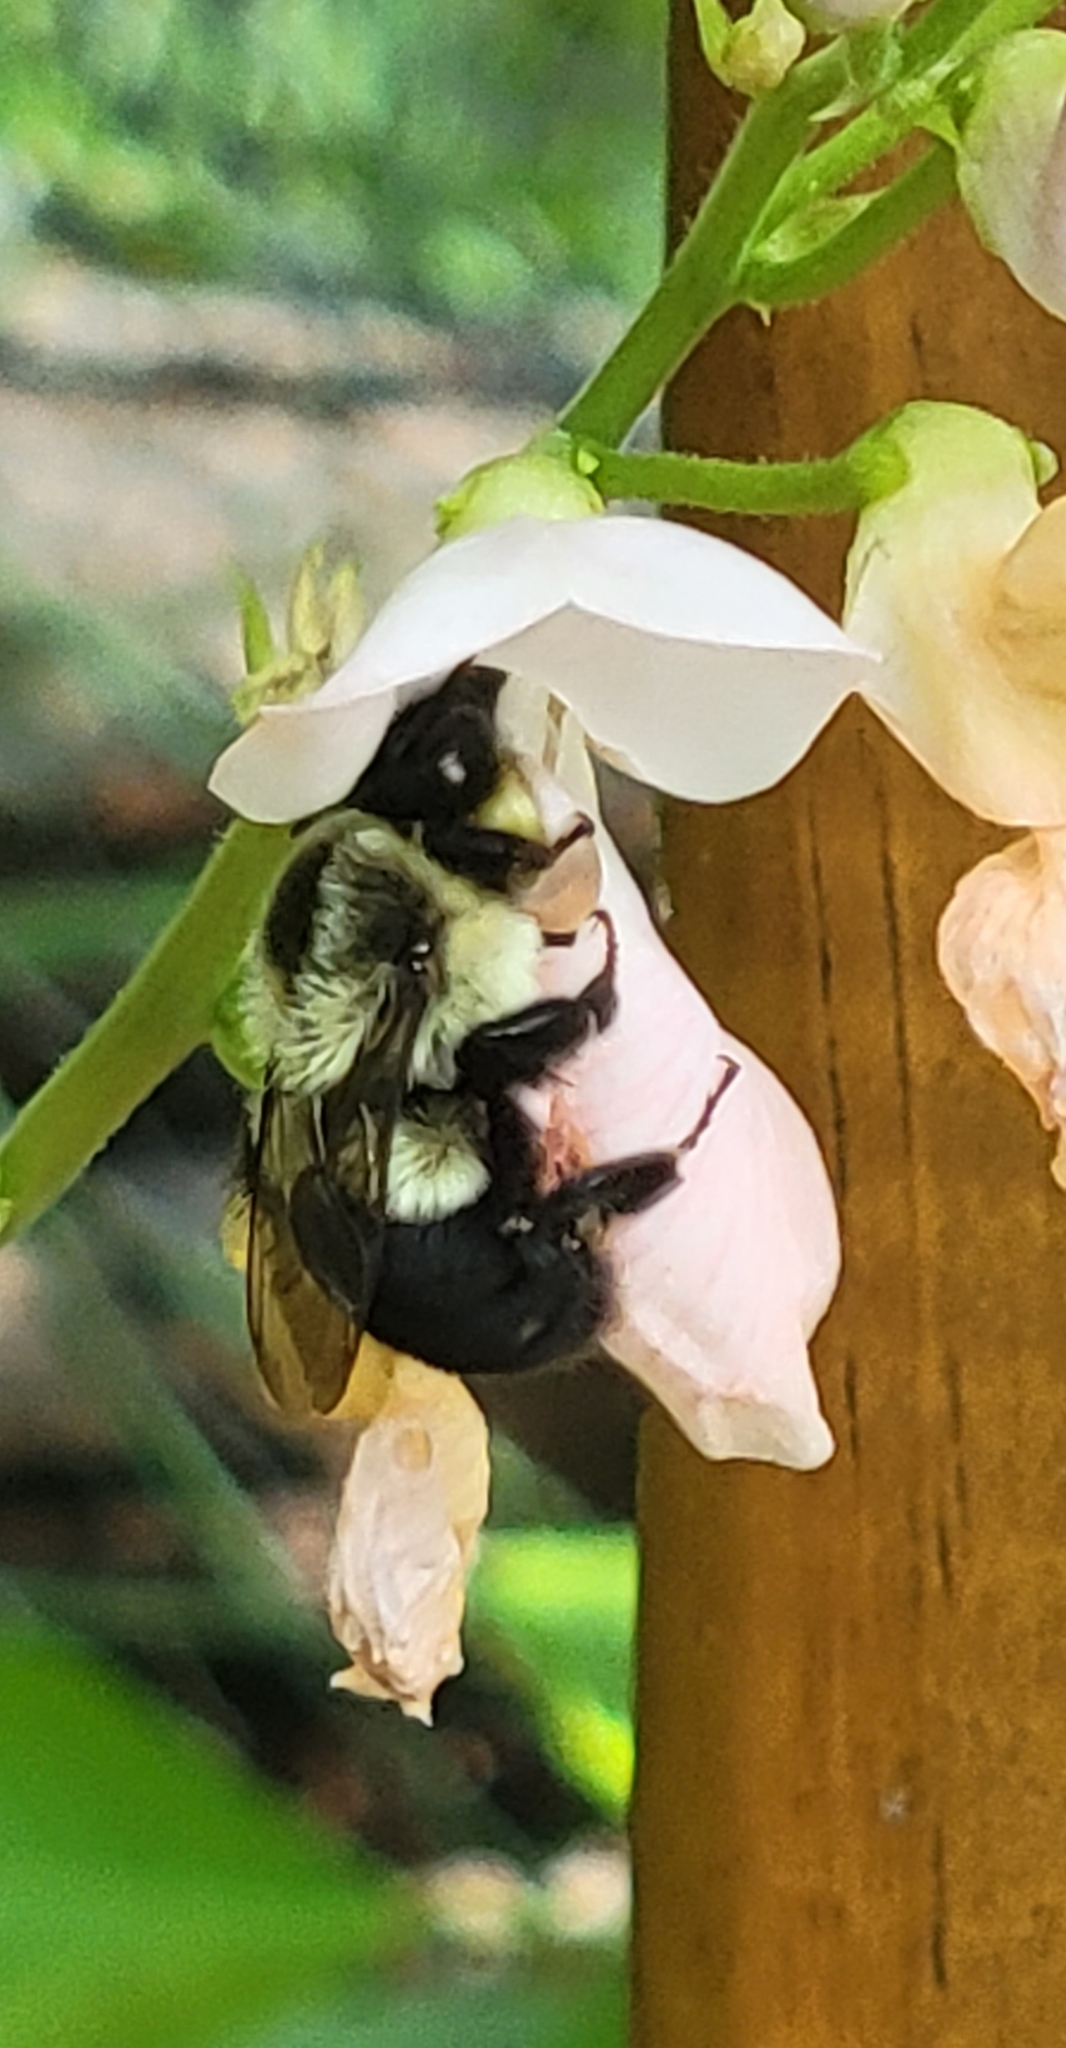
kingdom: Animalia
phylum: Arthropoda
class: Insecta
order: Hymenoptera
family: Apidae
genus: Bombus
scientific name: Bombus impatiens
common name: Common eastern bumble bee
